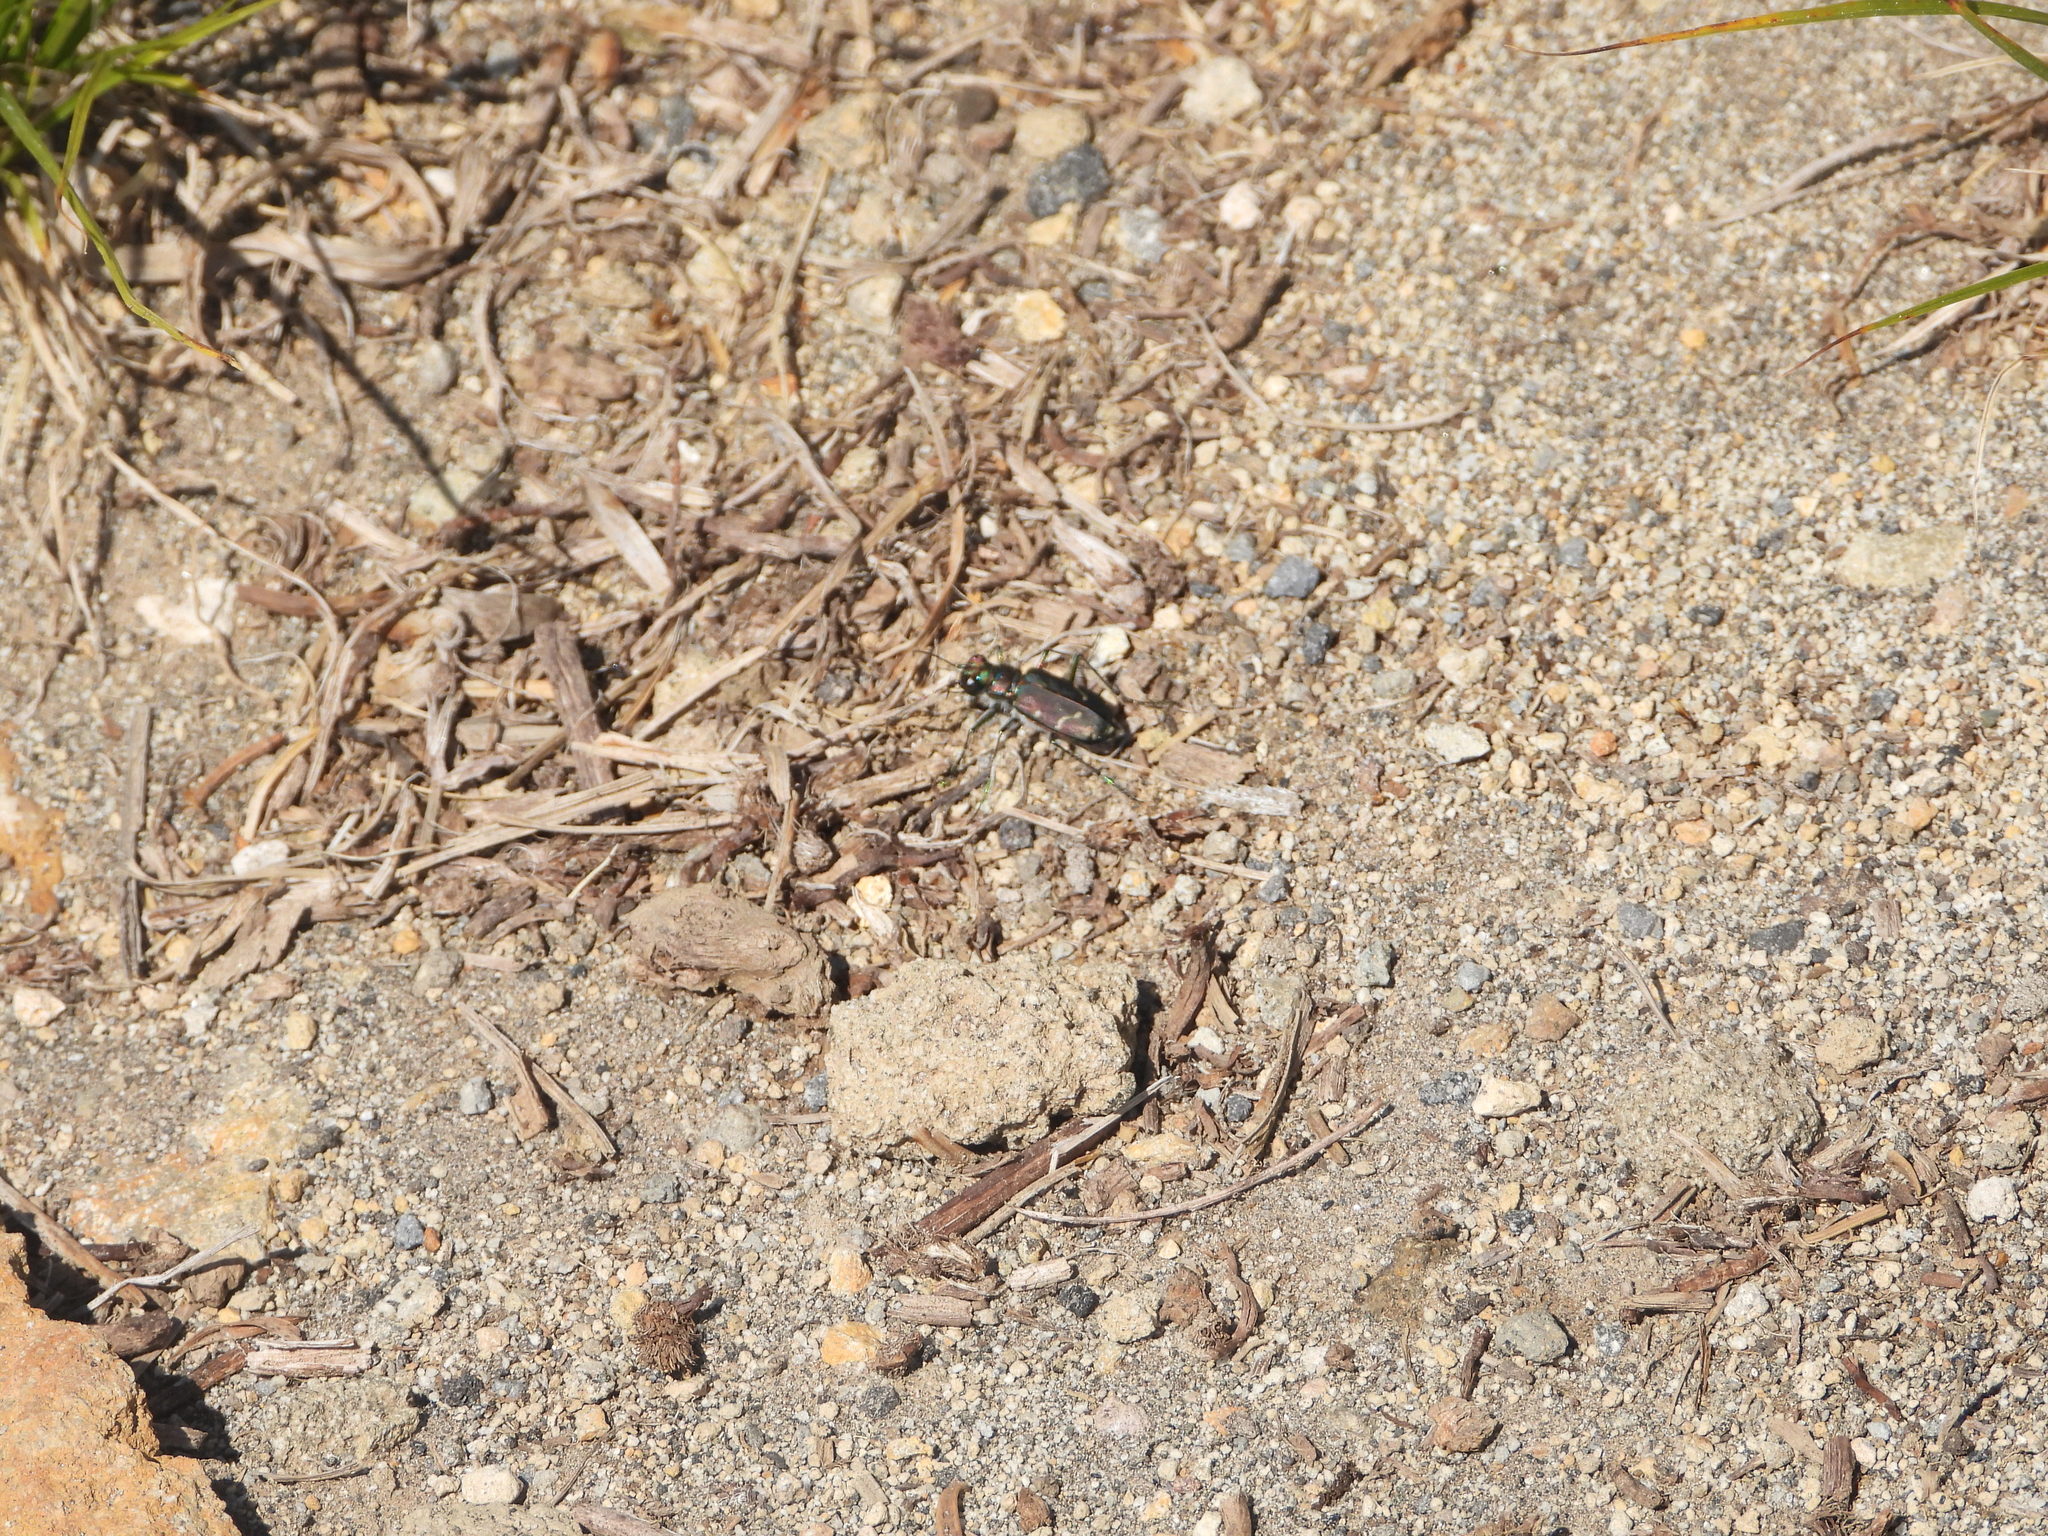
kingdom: Animalia
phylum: Arthropoda
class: Insecta
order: Coleoptera
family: Carabidae
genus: Cicindela
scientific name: Cicindela depressula
